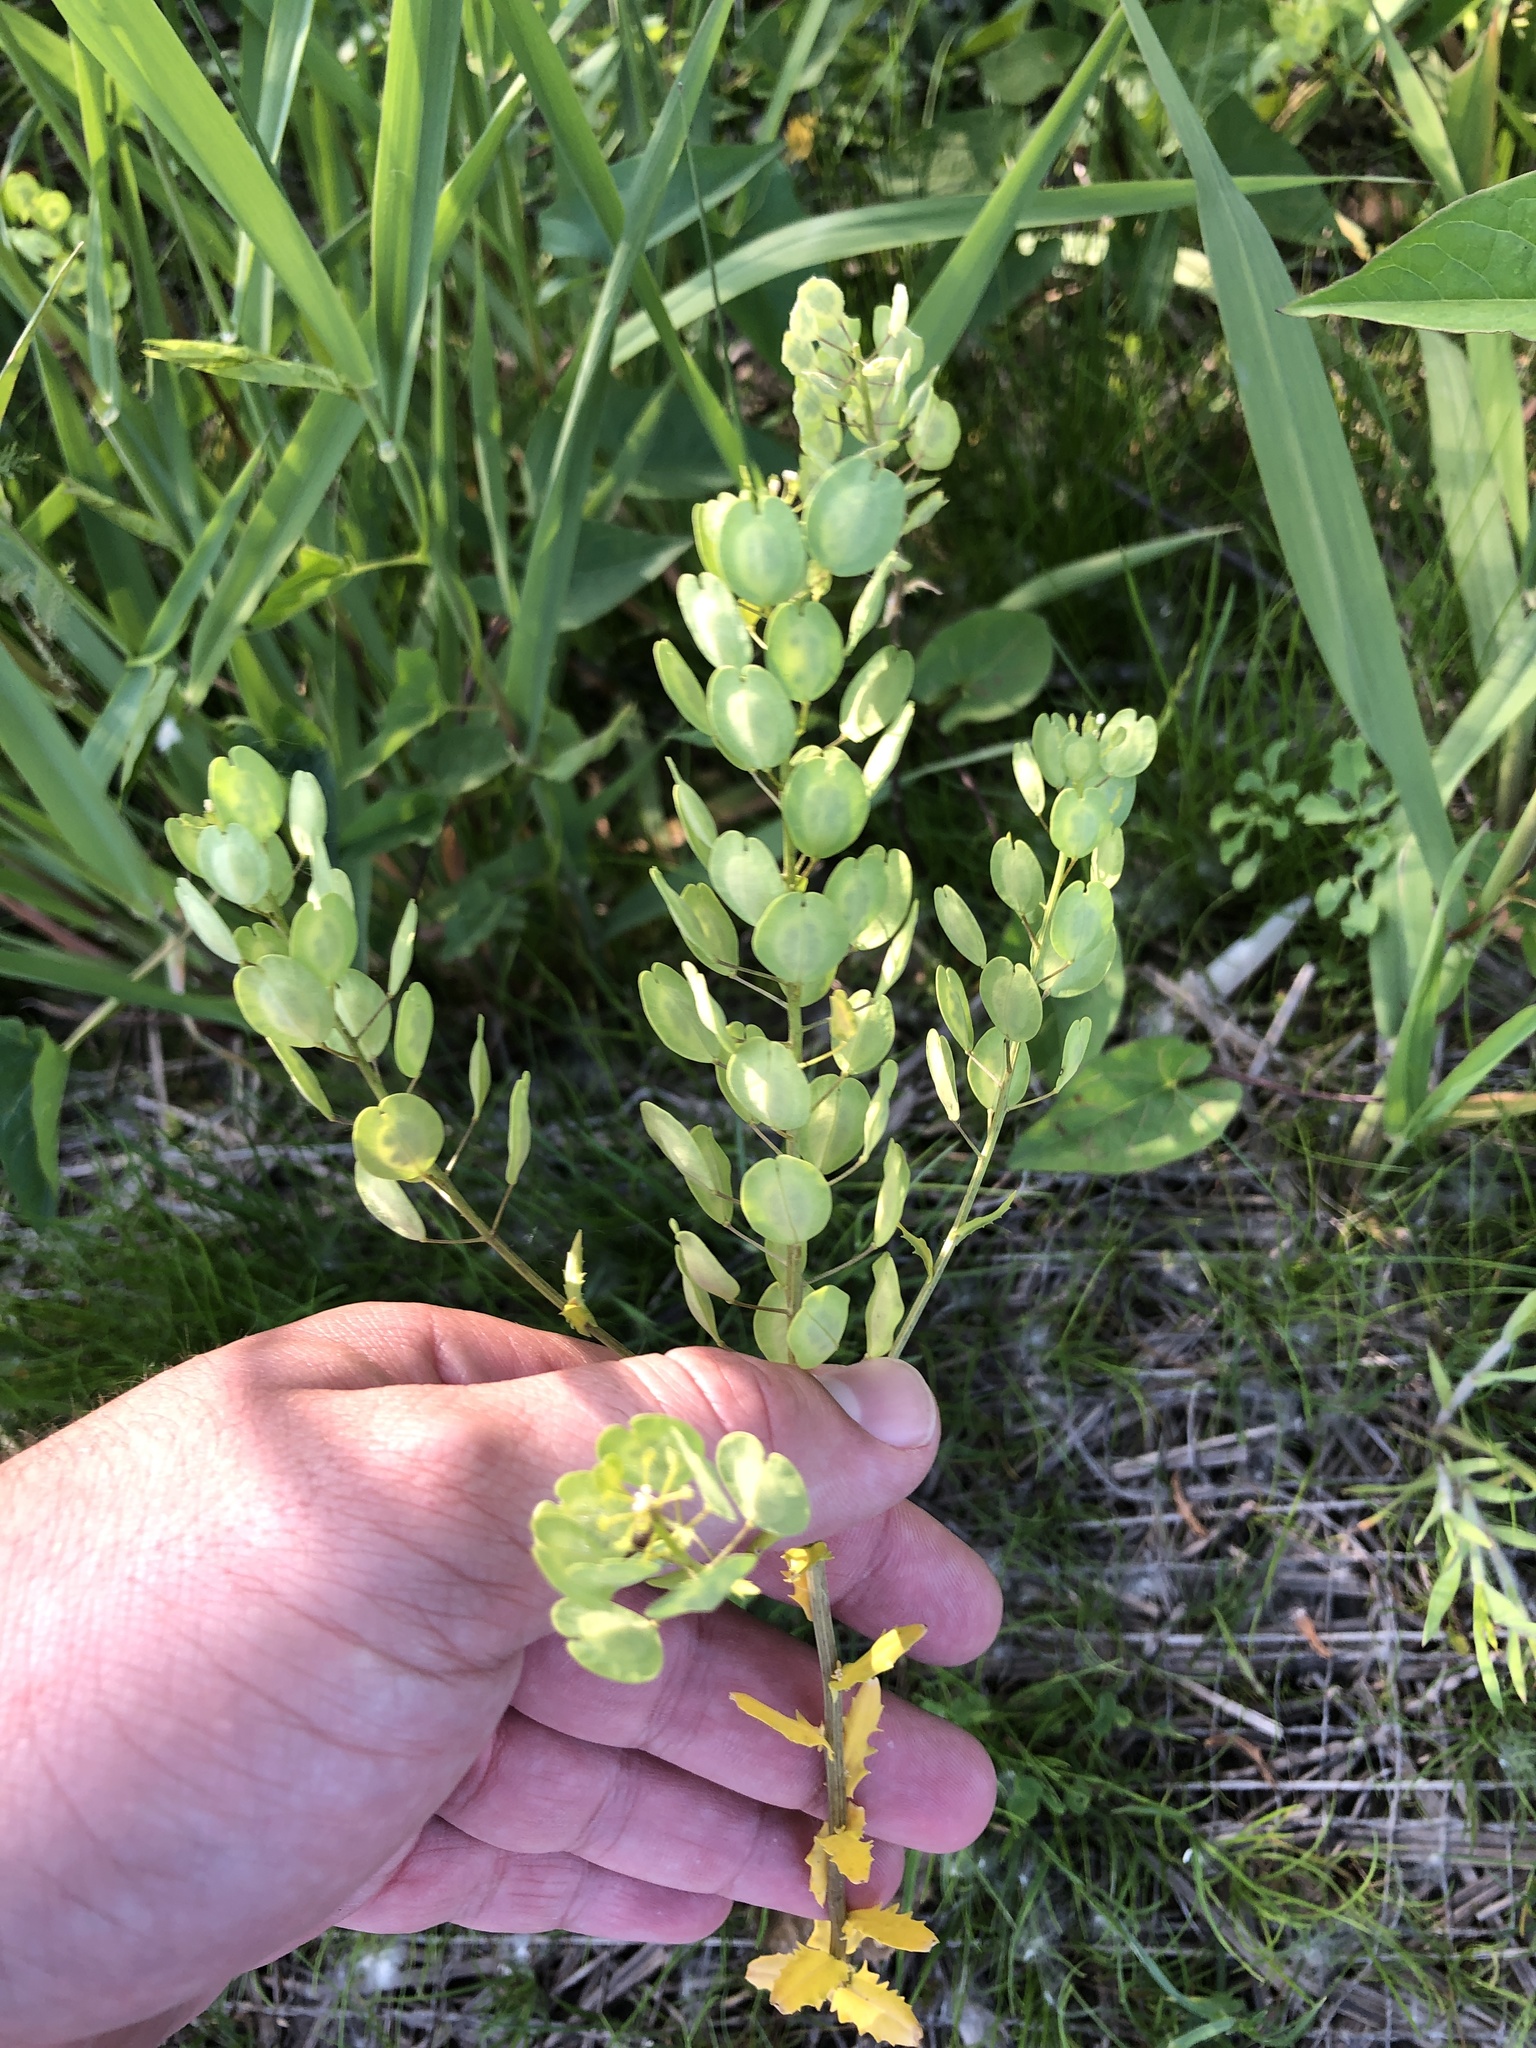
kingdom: Plantae
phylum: Tracheophyta
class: Magnoliopsida
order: Brassicales
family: Brassicaceae
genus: Thlaspi
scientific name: Thlaspi arvense
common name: Field pennycress
